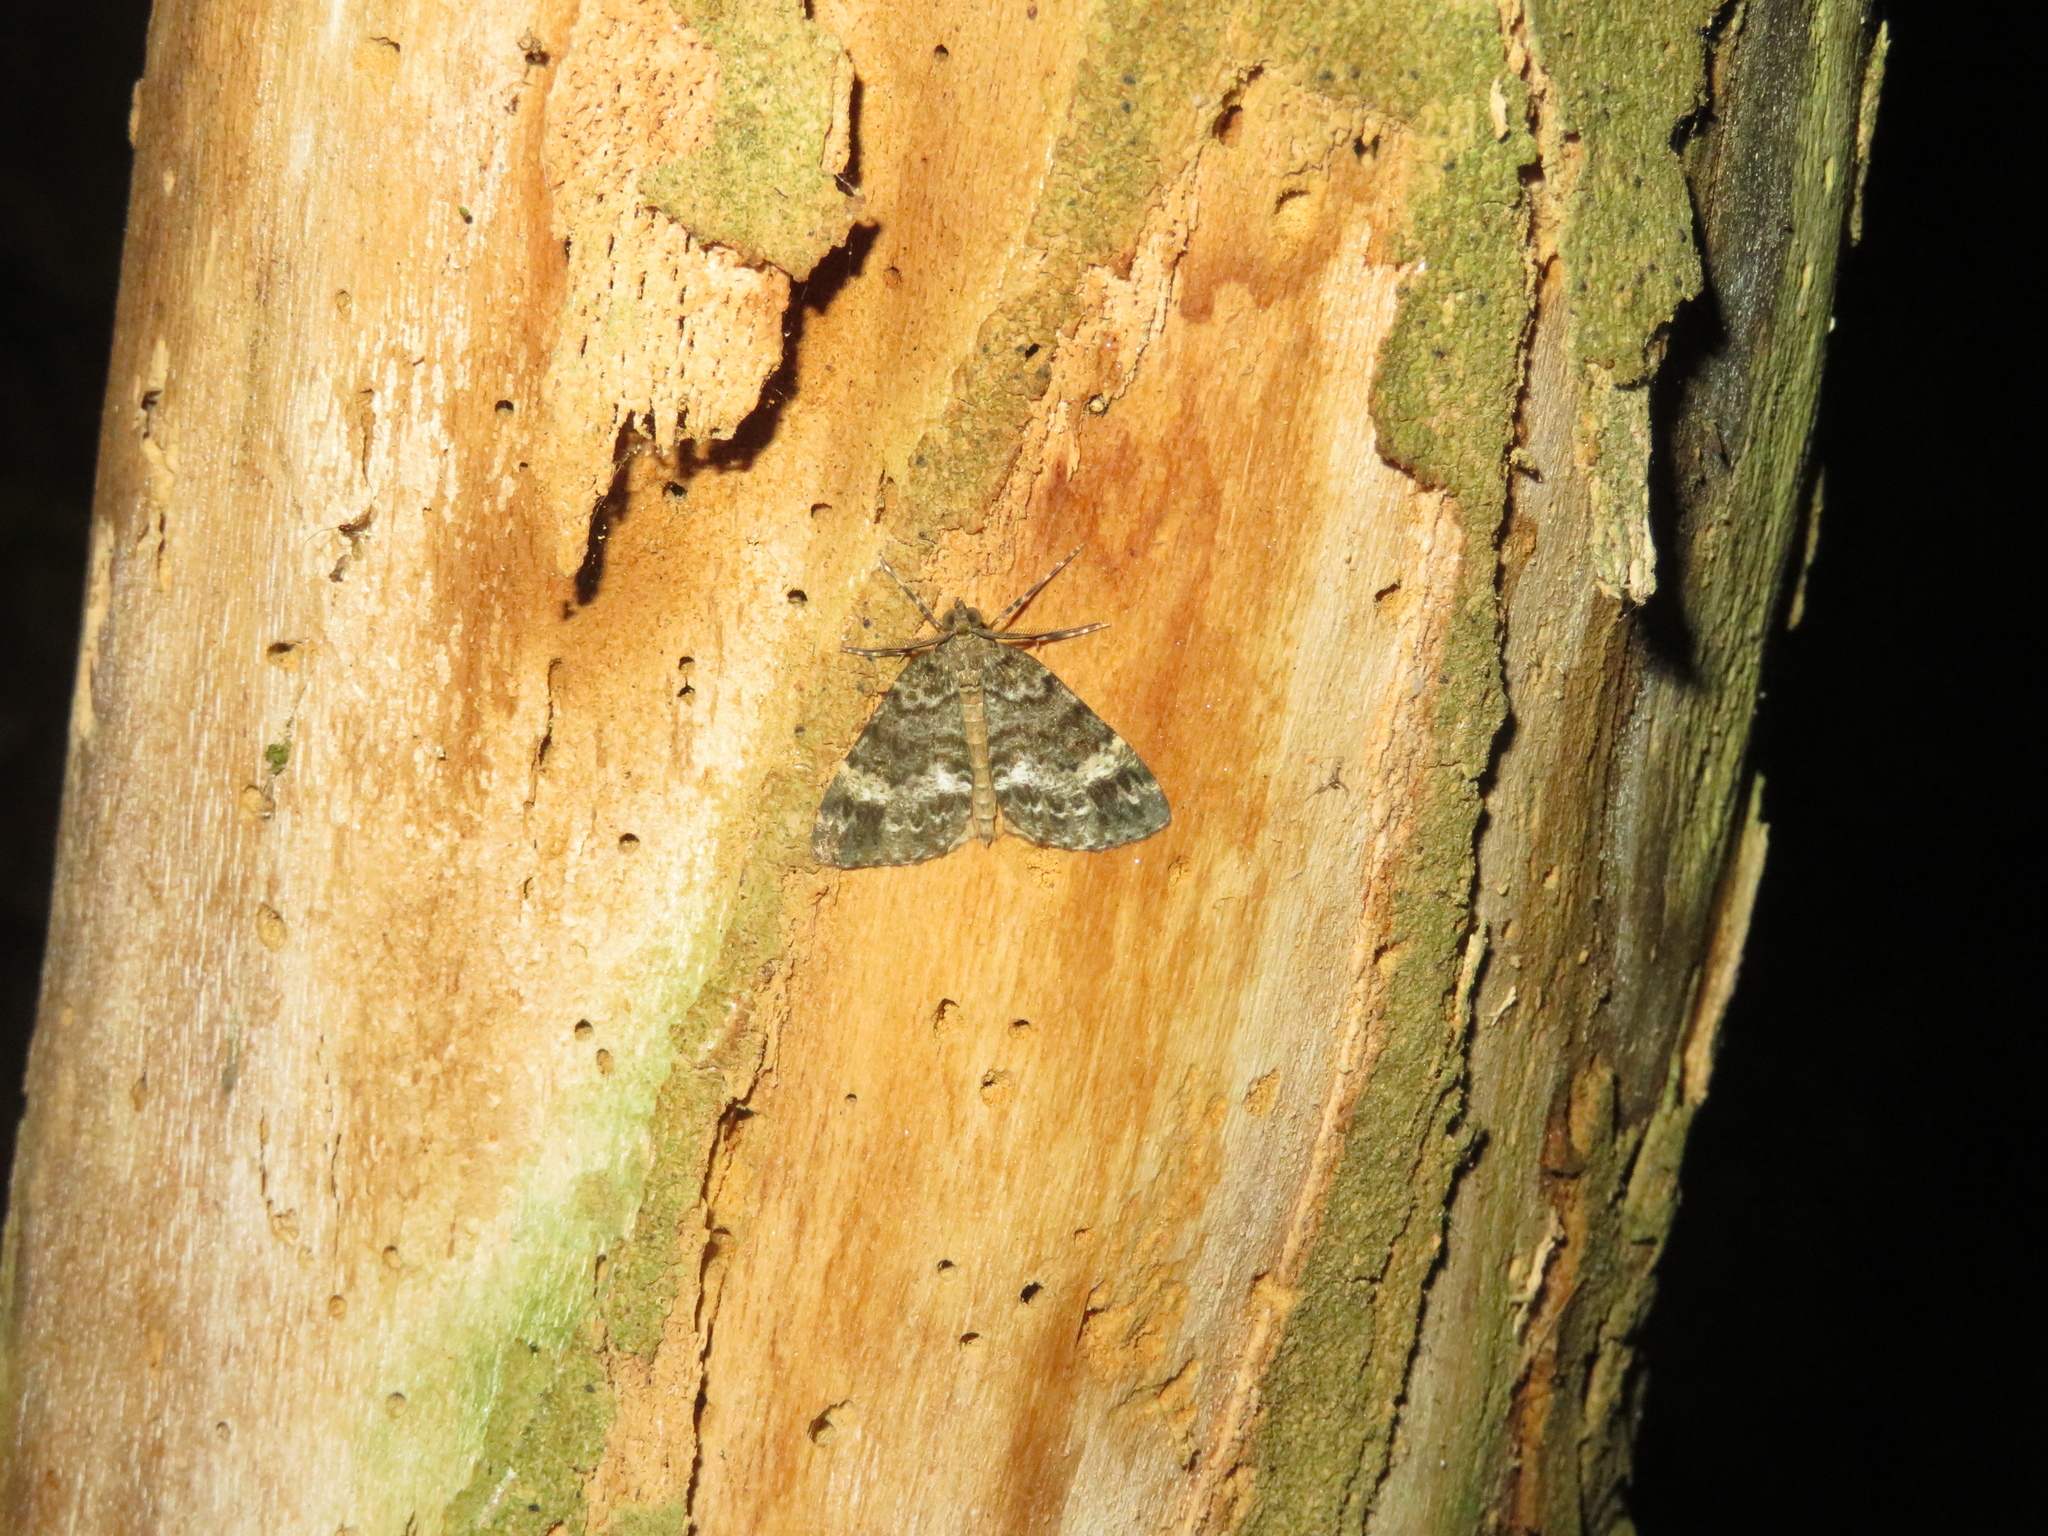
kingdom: Animalia
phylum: Arthropoda
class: Insecta
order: Lepidoptera
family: Geometridae
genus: Pseudocoremia
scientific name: Pseudocoremia indistincta
